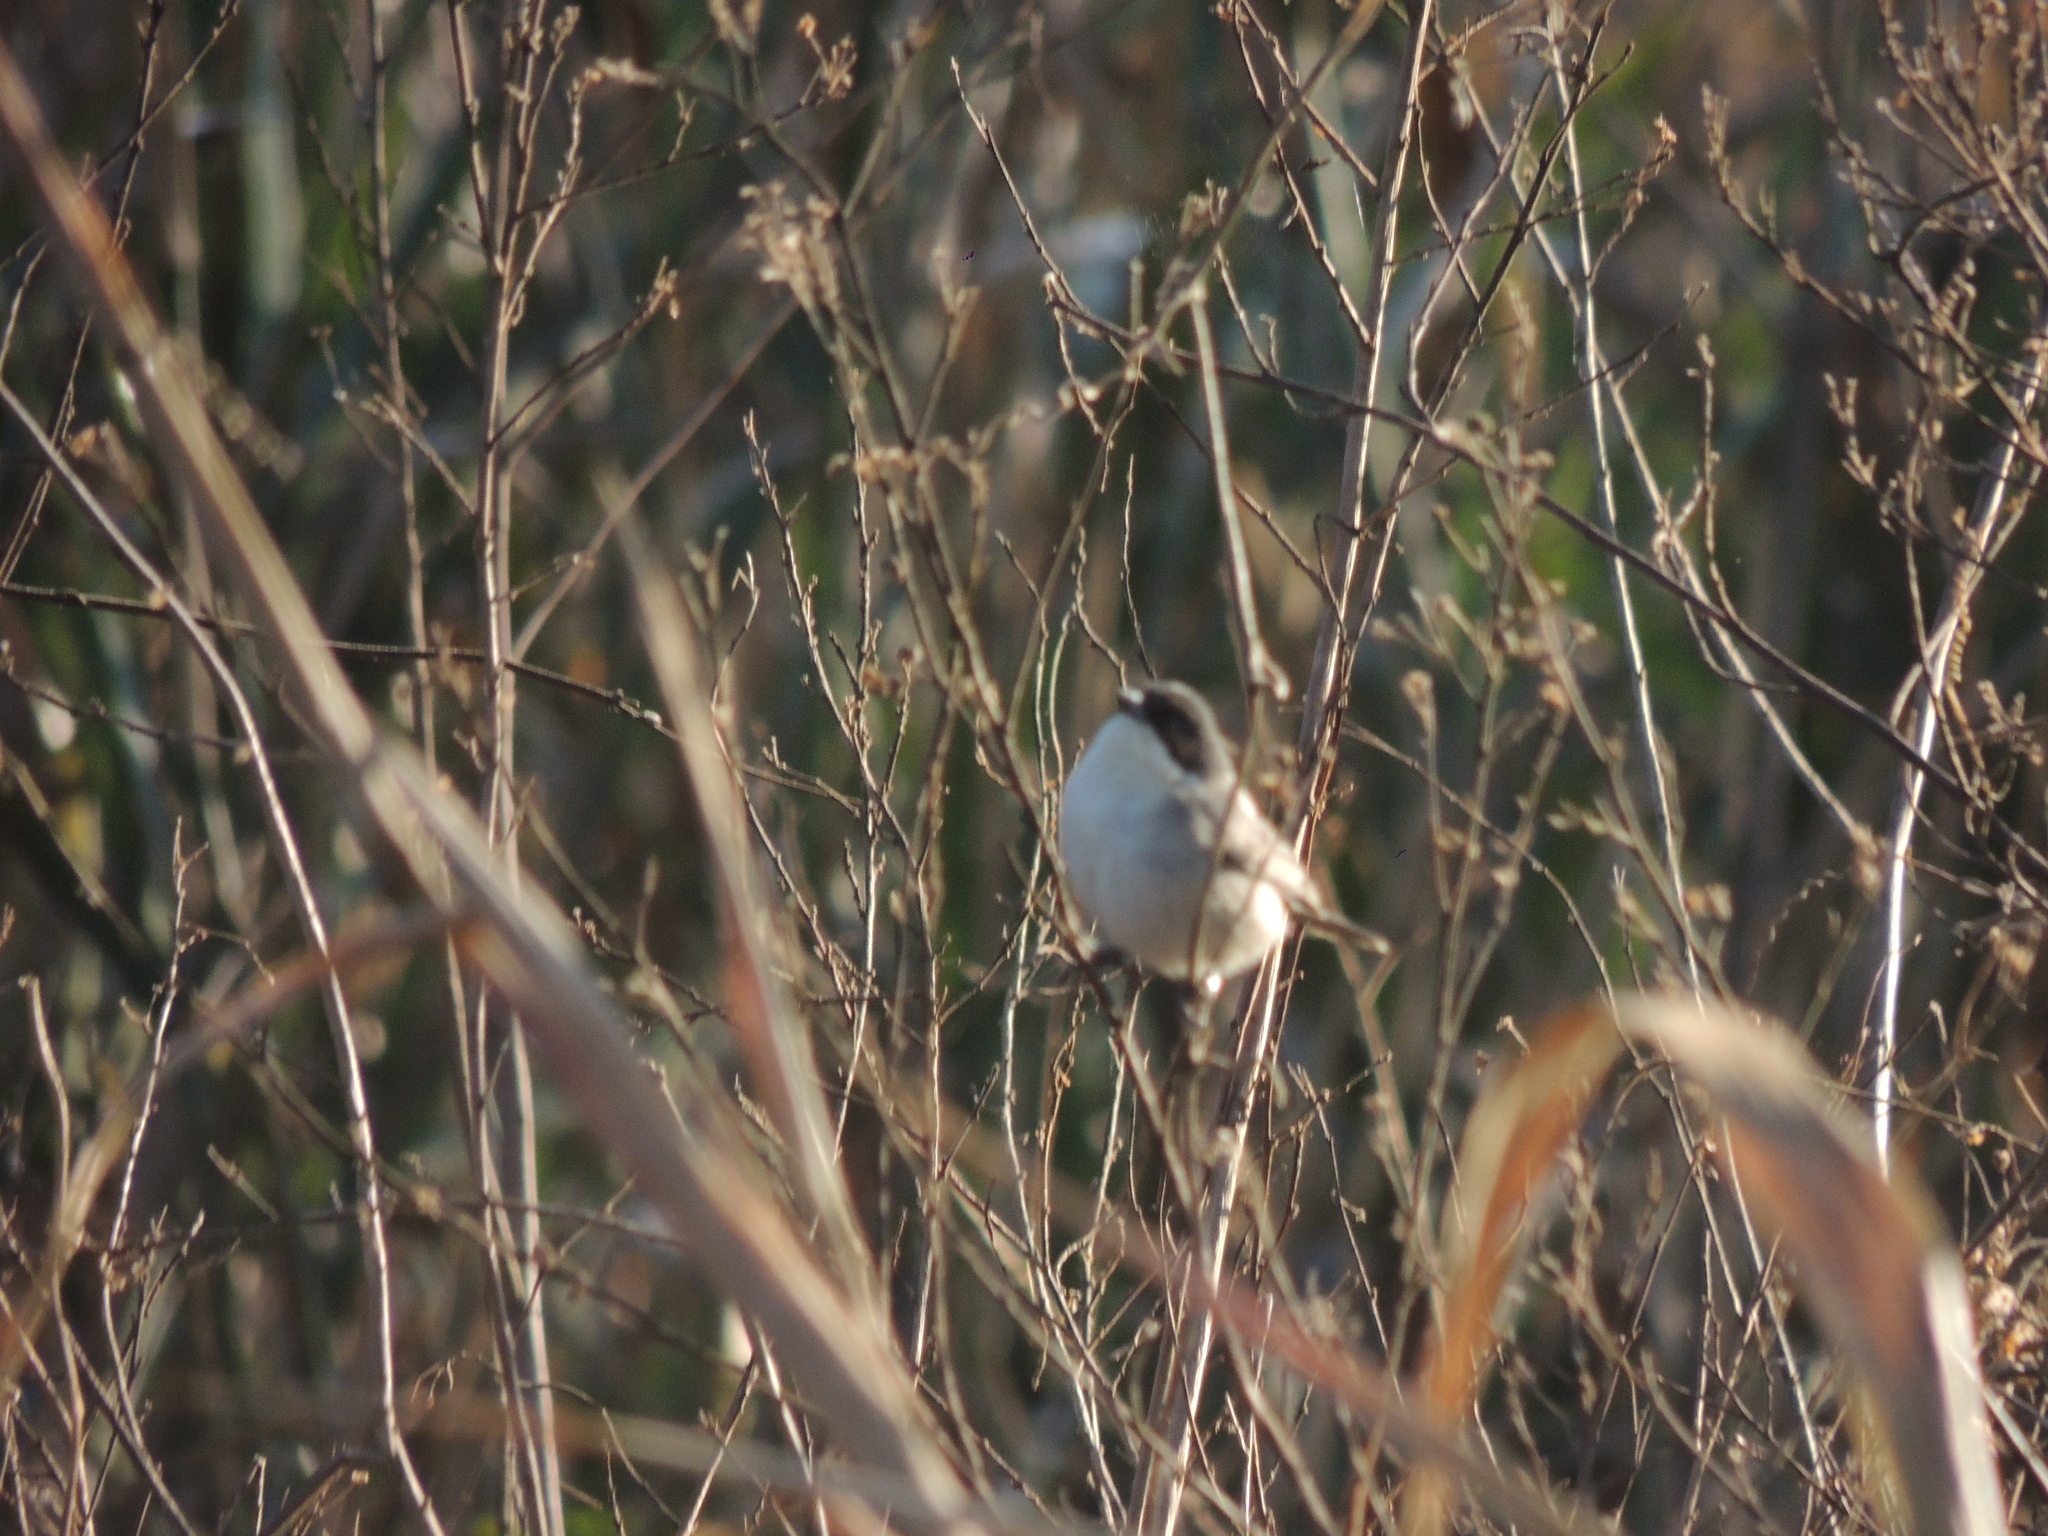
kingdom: Animalia
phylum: Chordata
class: Aves
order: Passeriformes
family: Thraupidae
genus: Microspingus
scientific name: Microspingus melanoleucus
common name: Black-capped warbling-finch
